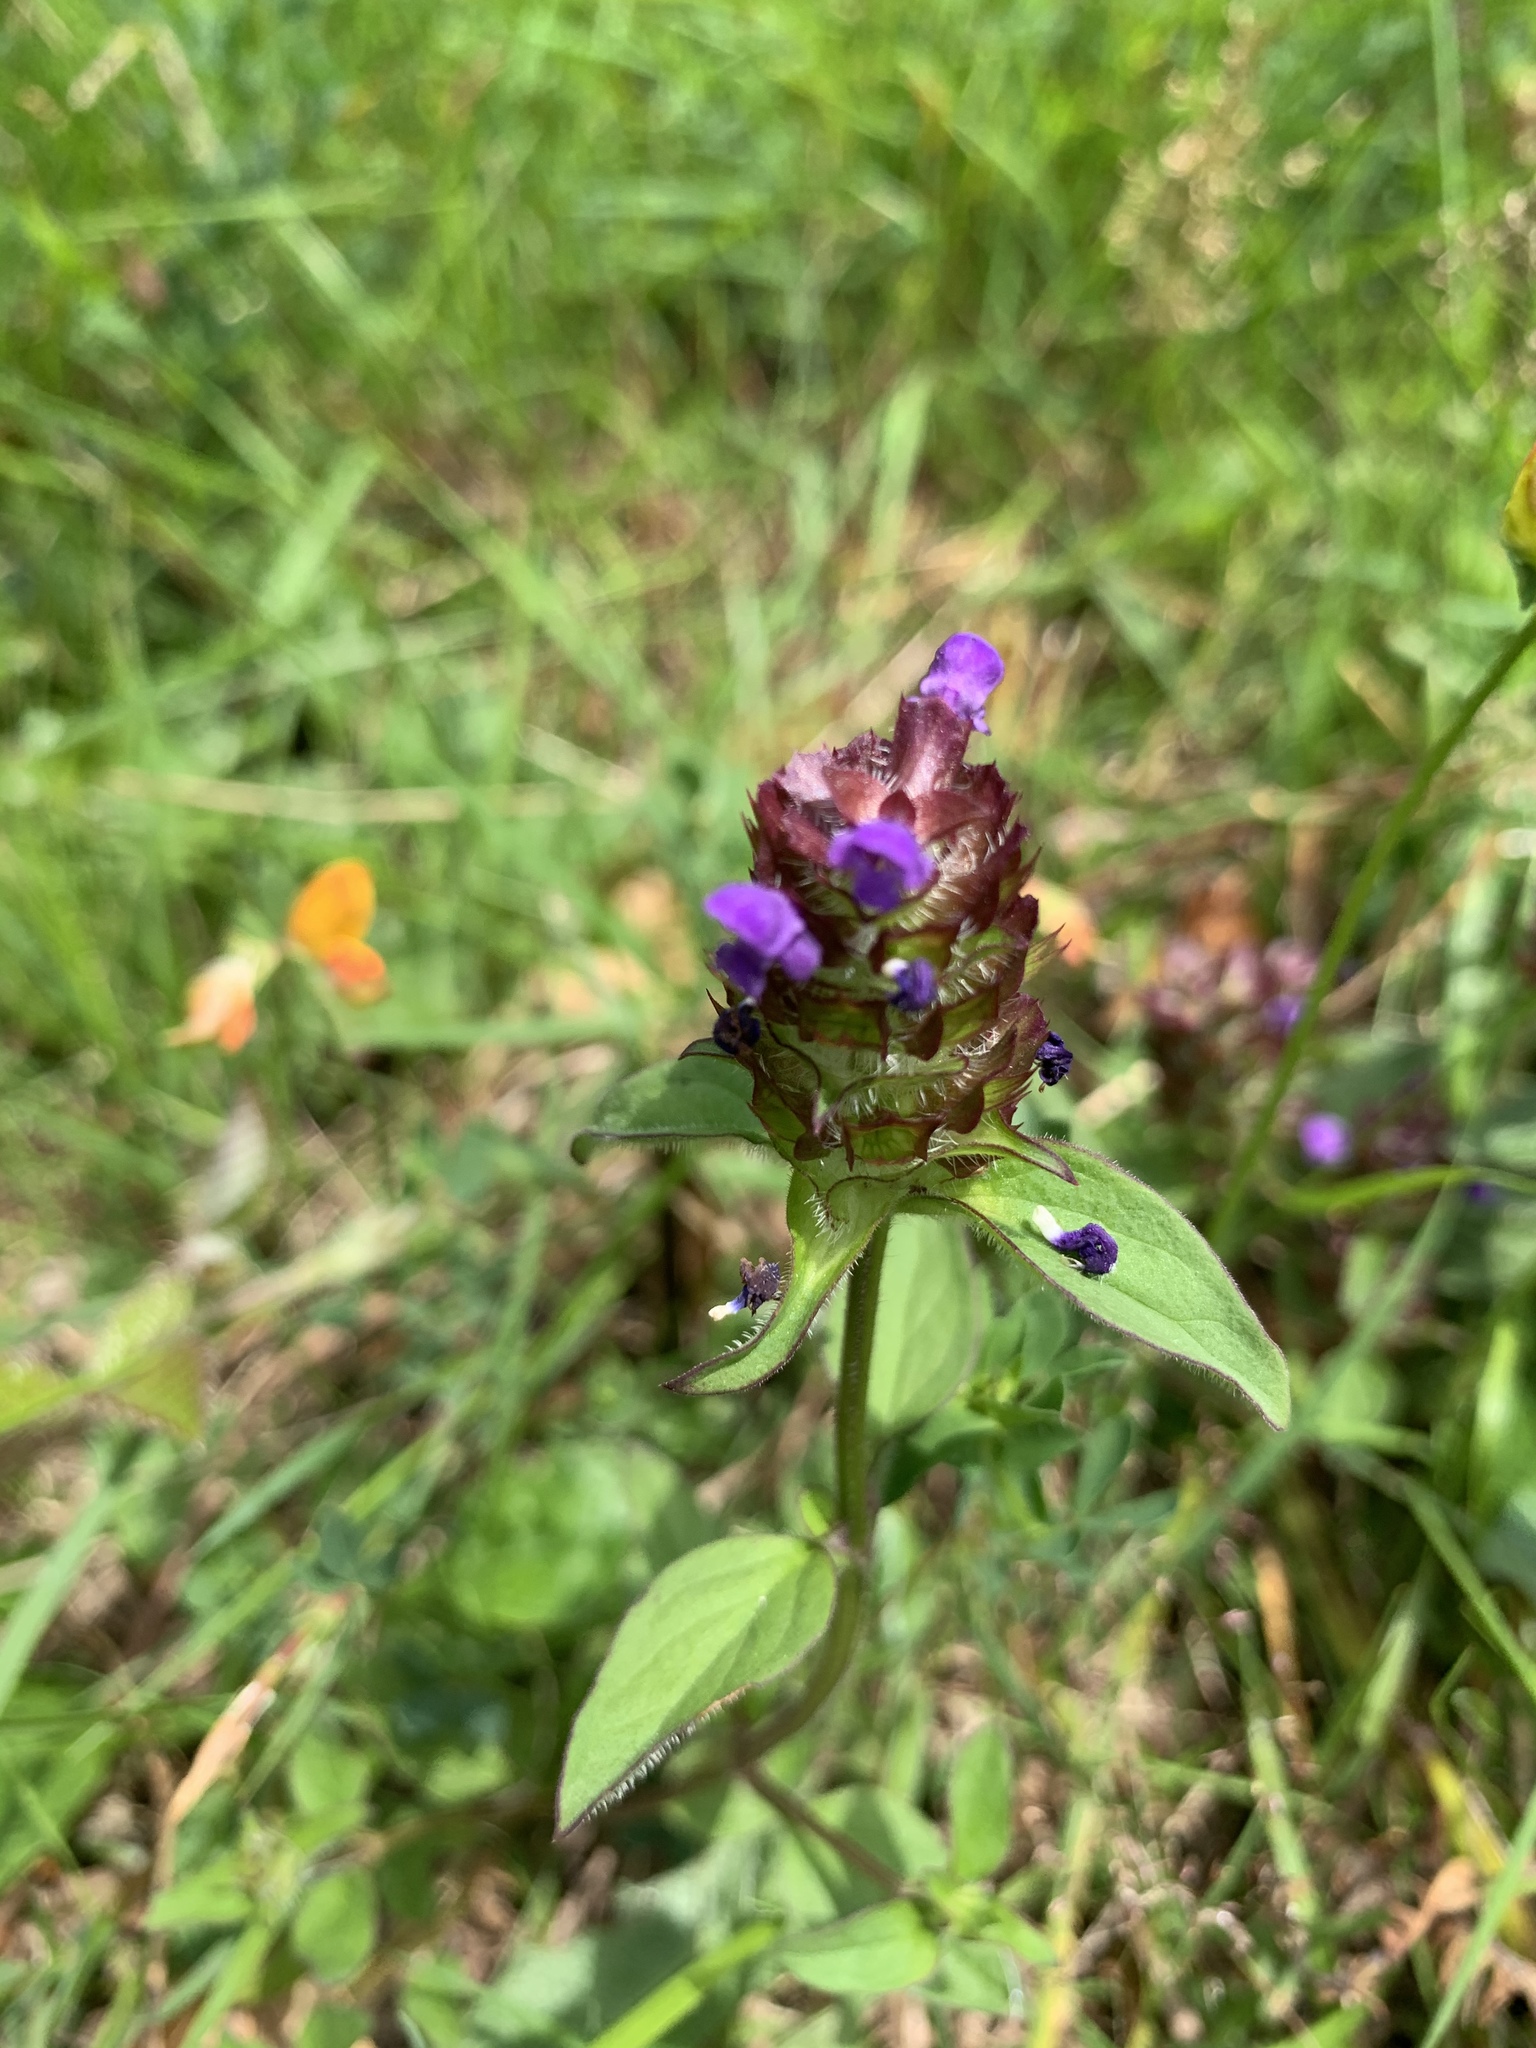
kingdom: Plantae
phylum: Tracheophyta
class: Magnoliopsida
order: Lamiales
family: Lamiaceae
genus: Prunella
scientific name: Prunella vulgaris
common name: Heal-all
